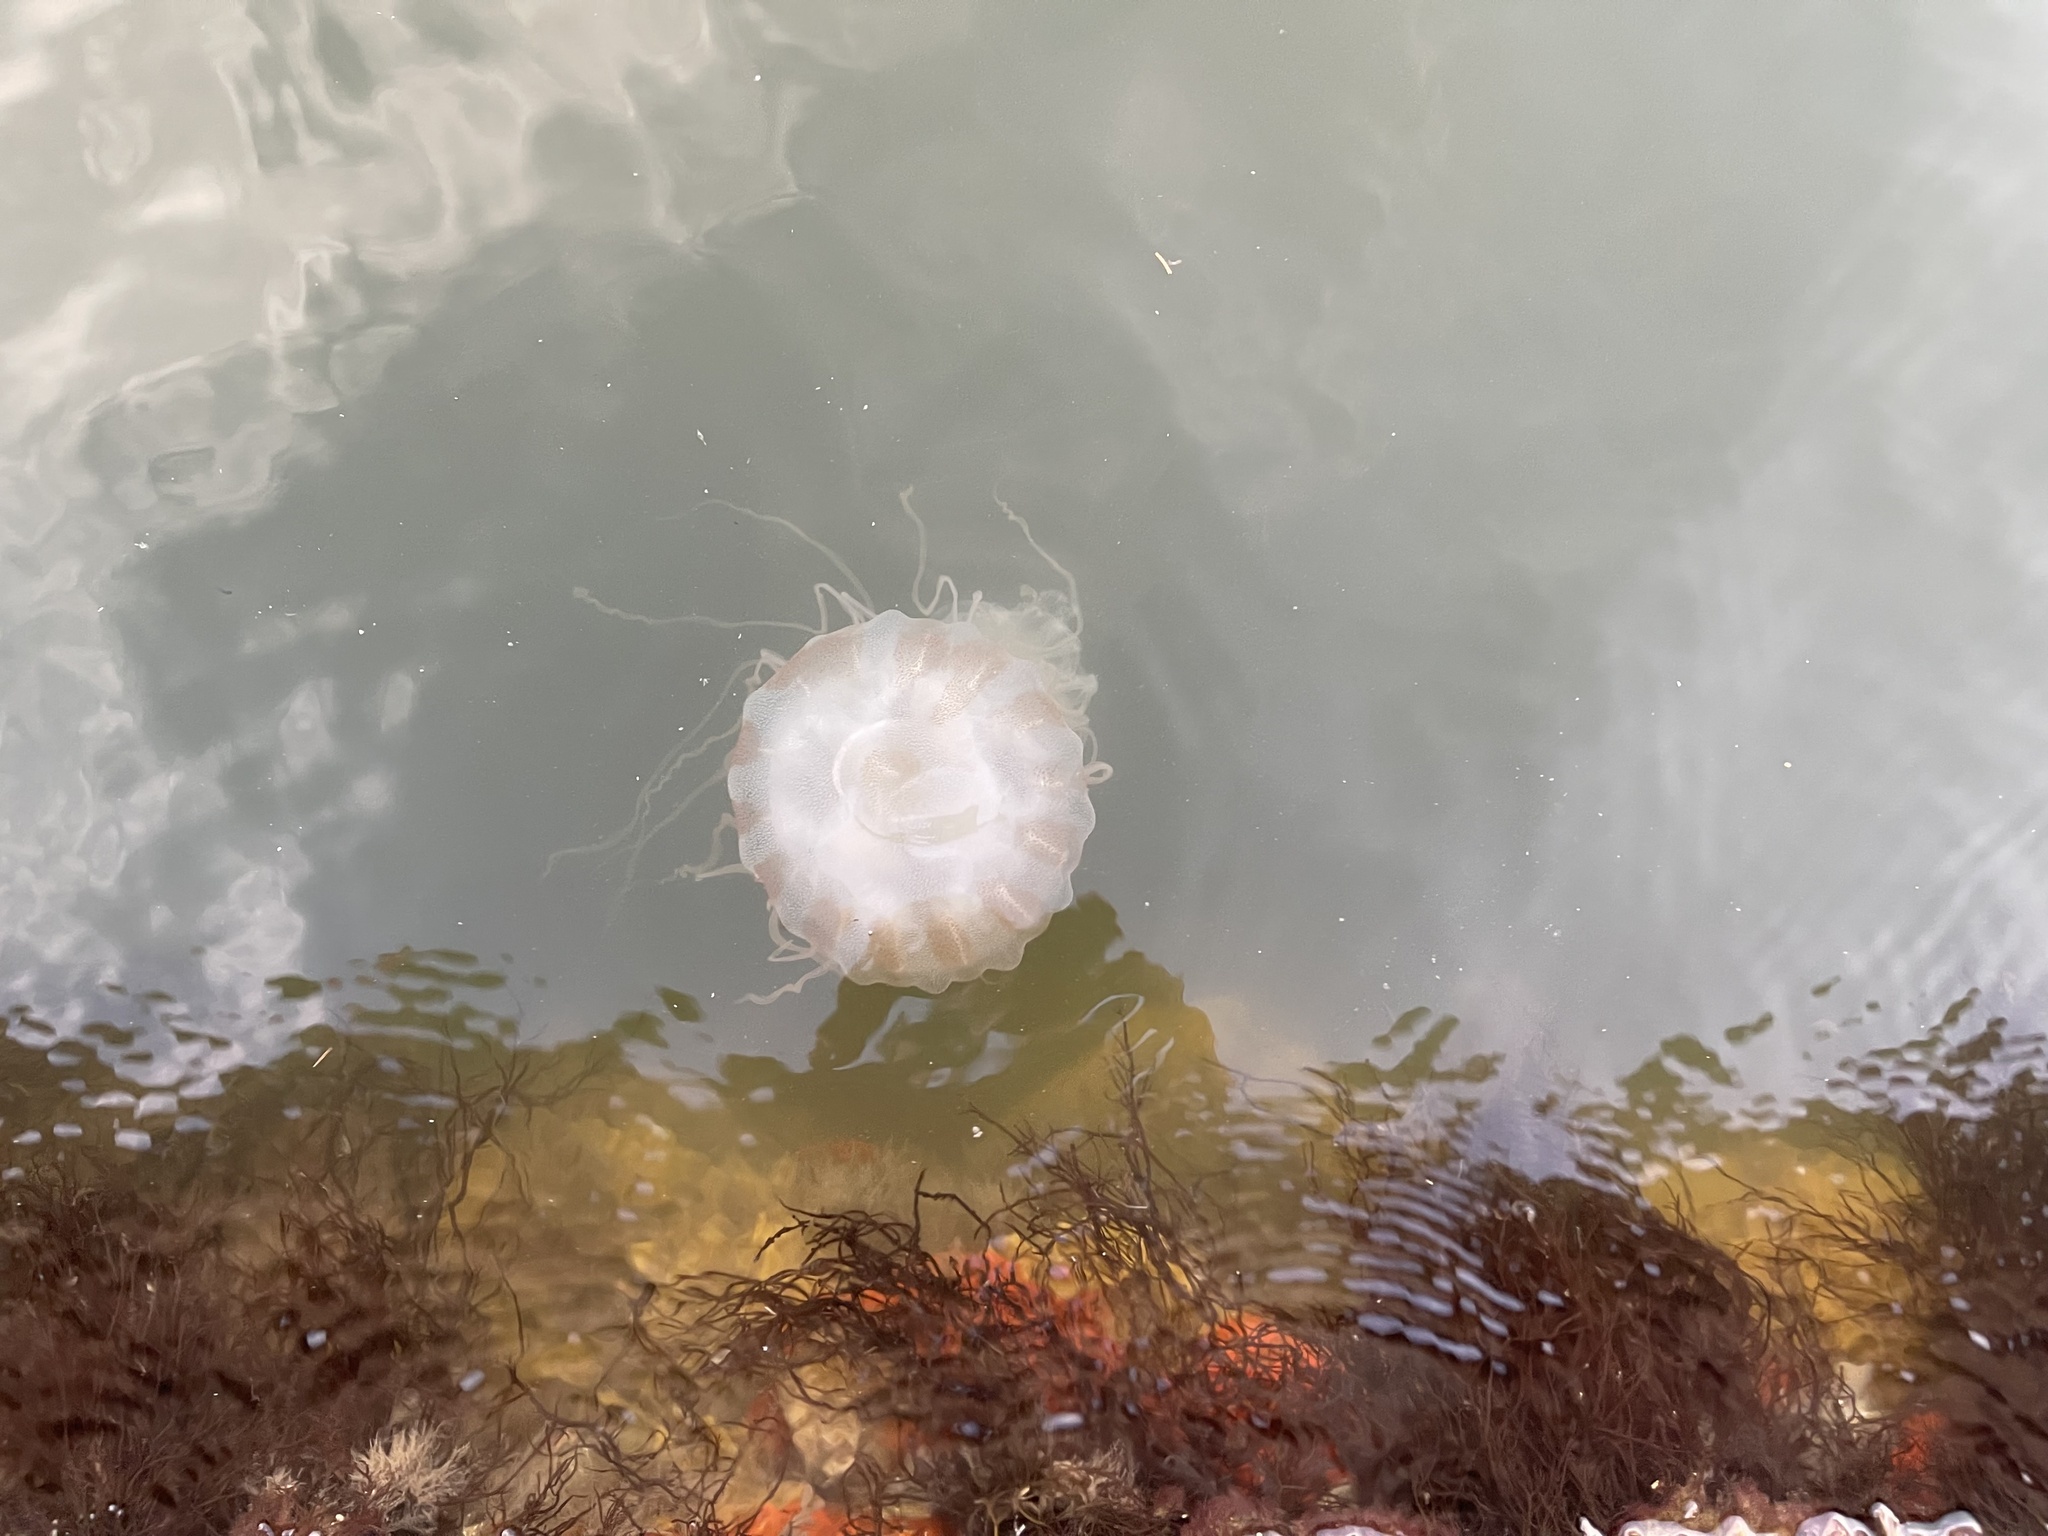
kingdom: Animalia
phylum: Cnidaria
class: Scyphozoa
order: Semaeostomeae
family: Pelagiidae
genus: Chrysaora
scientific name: Chrysaora chesapeakei
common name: Bay nettle
